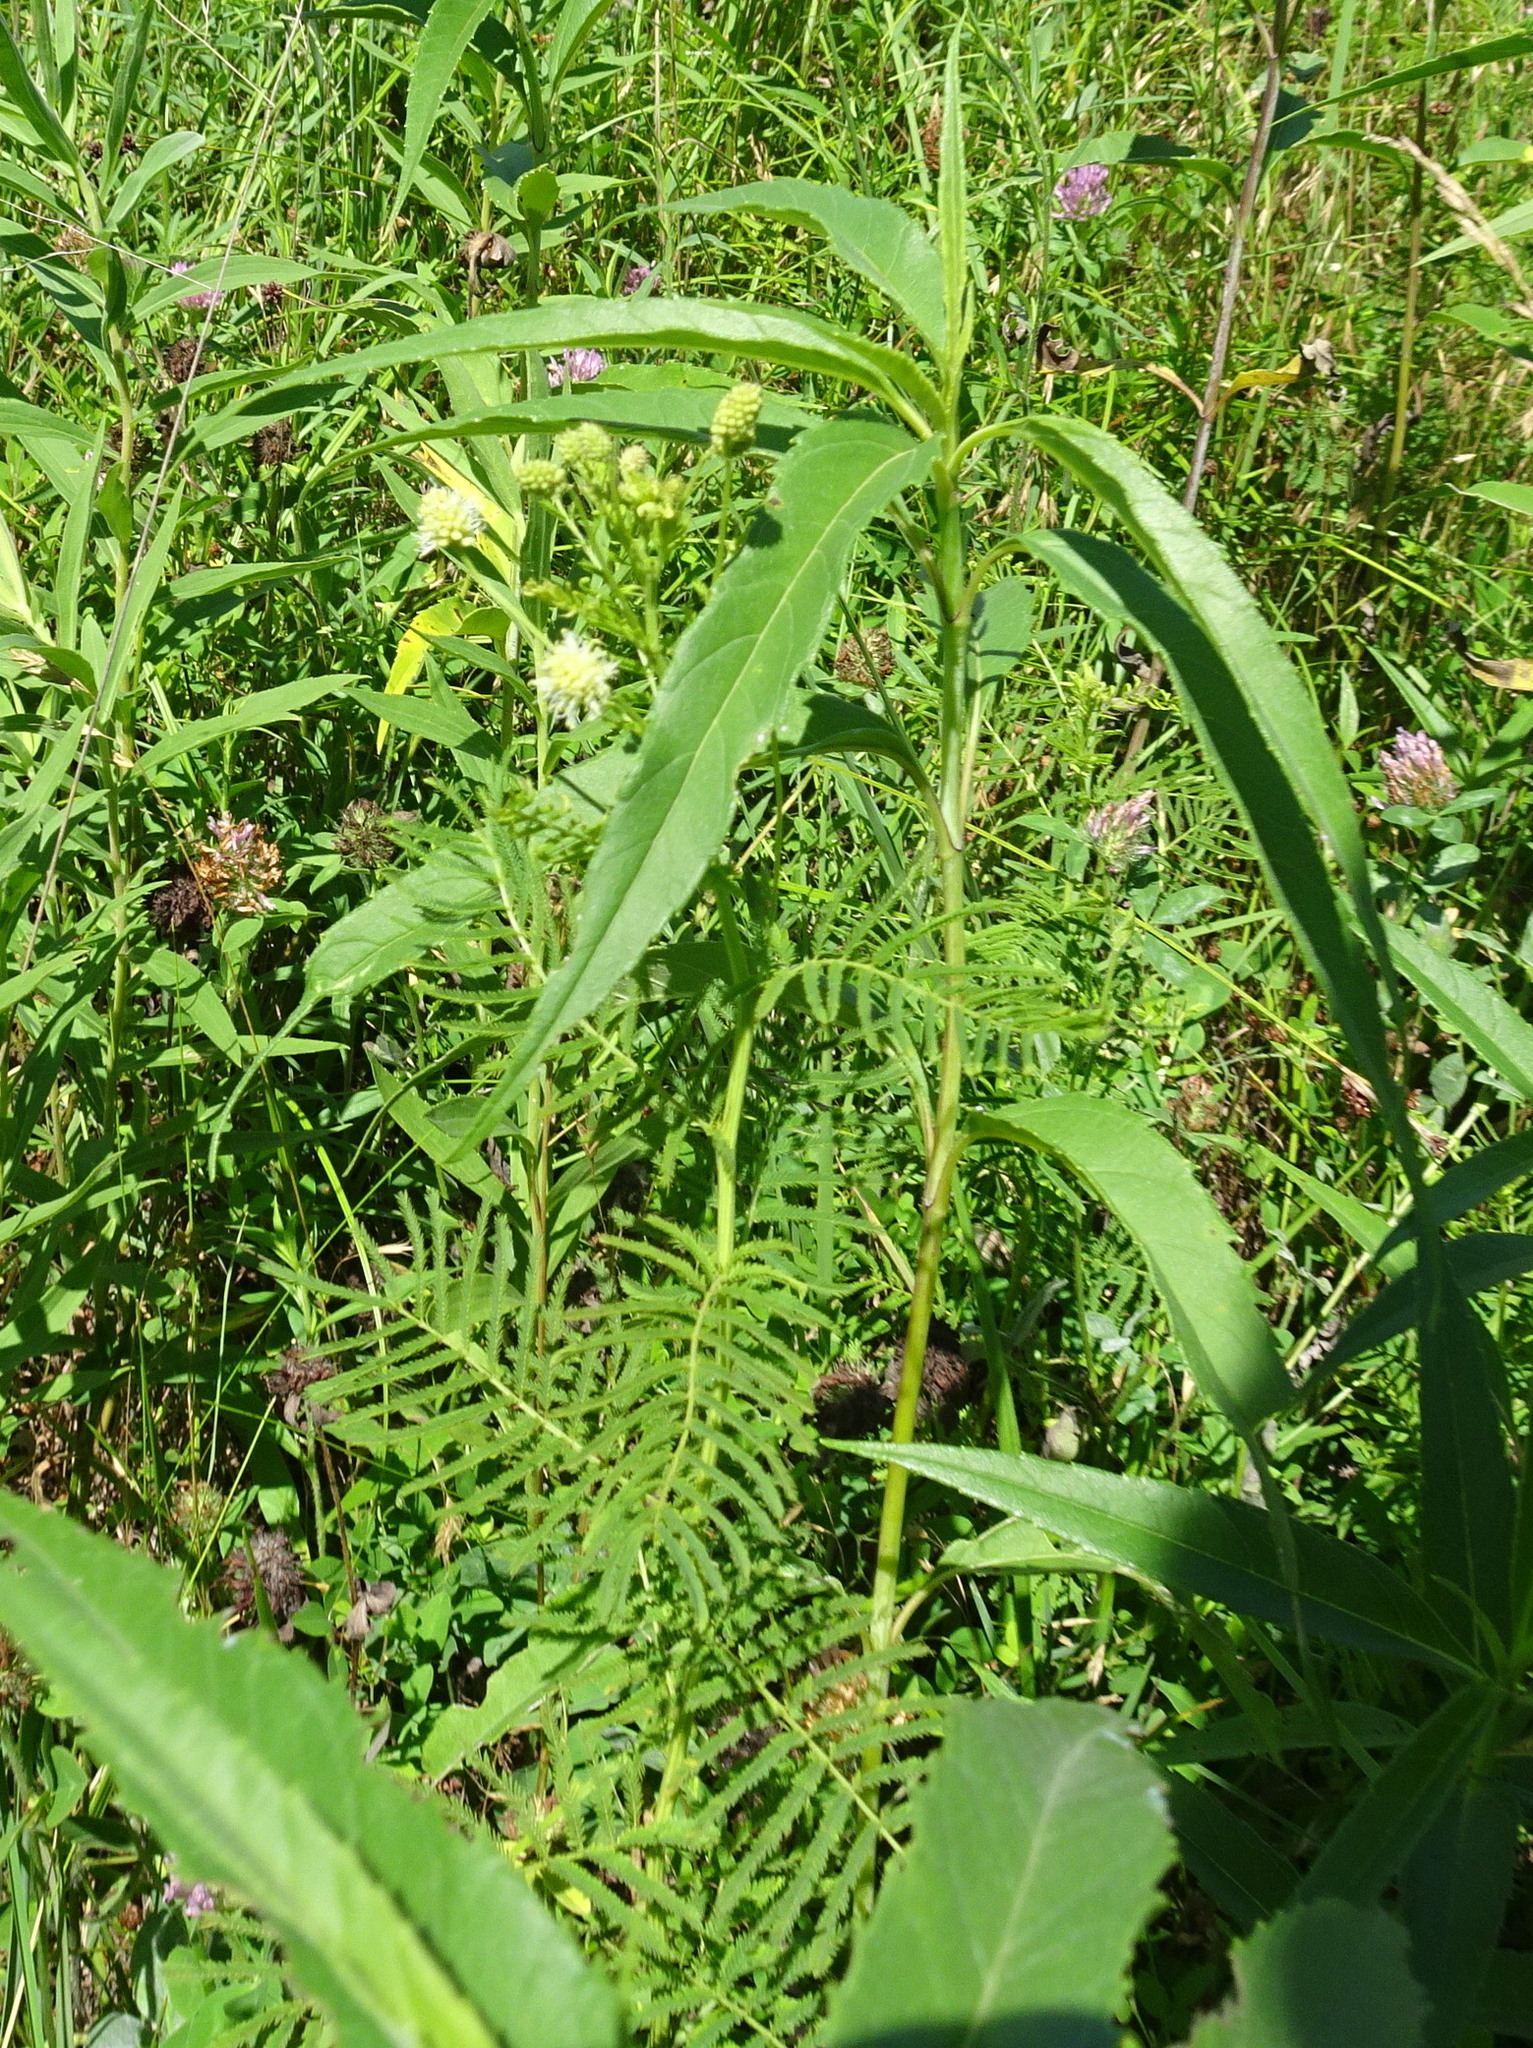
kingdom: Plantae
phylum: Tracheophyta
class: Magnoliopsida
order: Fabales
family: Fabaceae
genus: Desmanthus
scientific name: Desmanthus illinoensis
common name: Illinois bundle-flower
